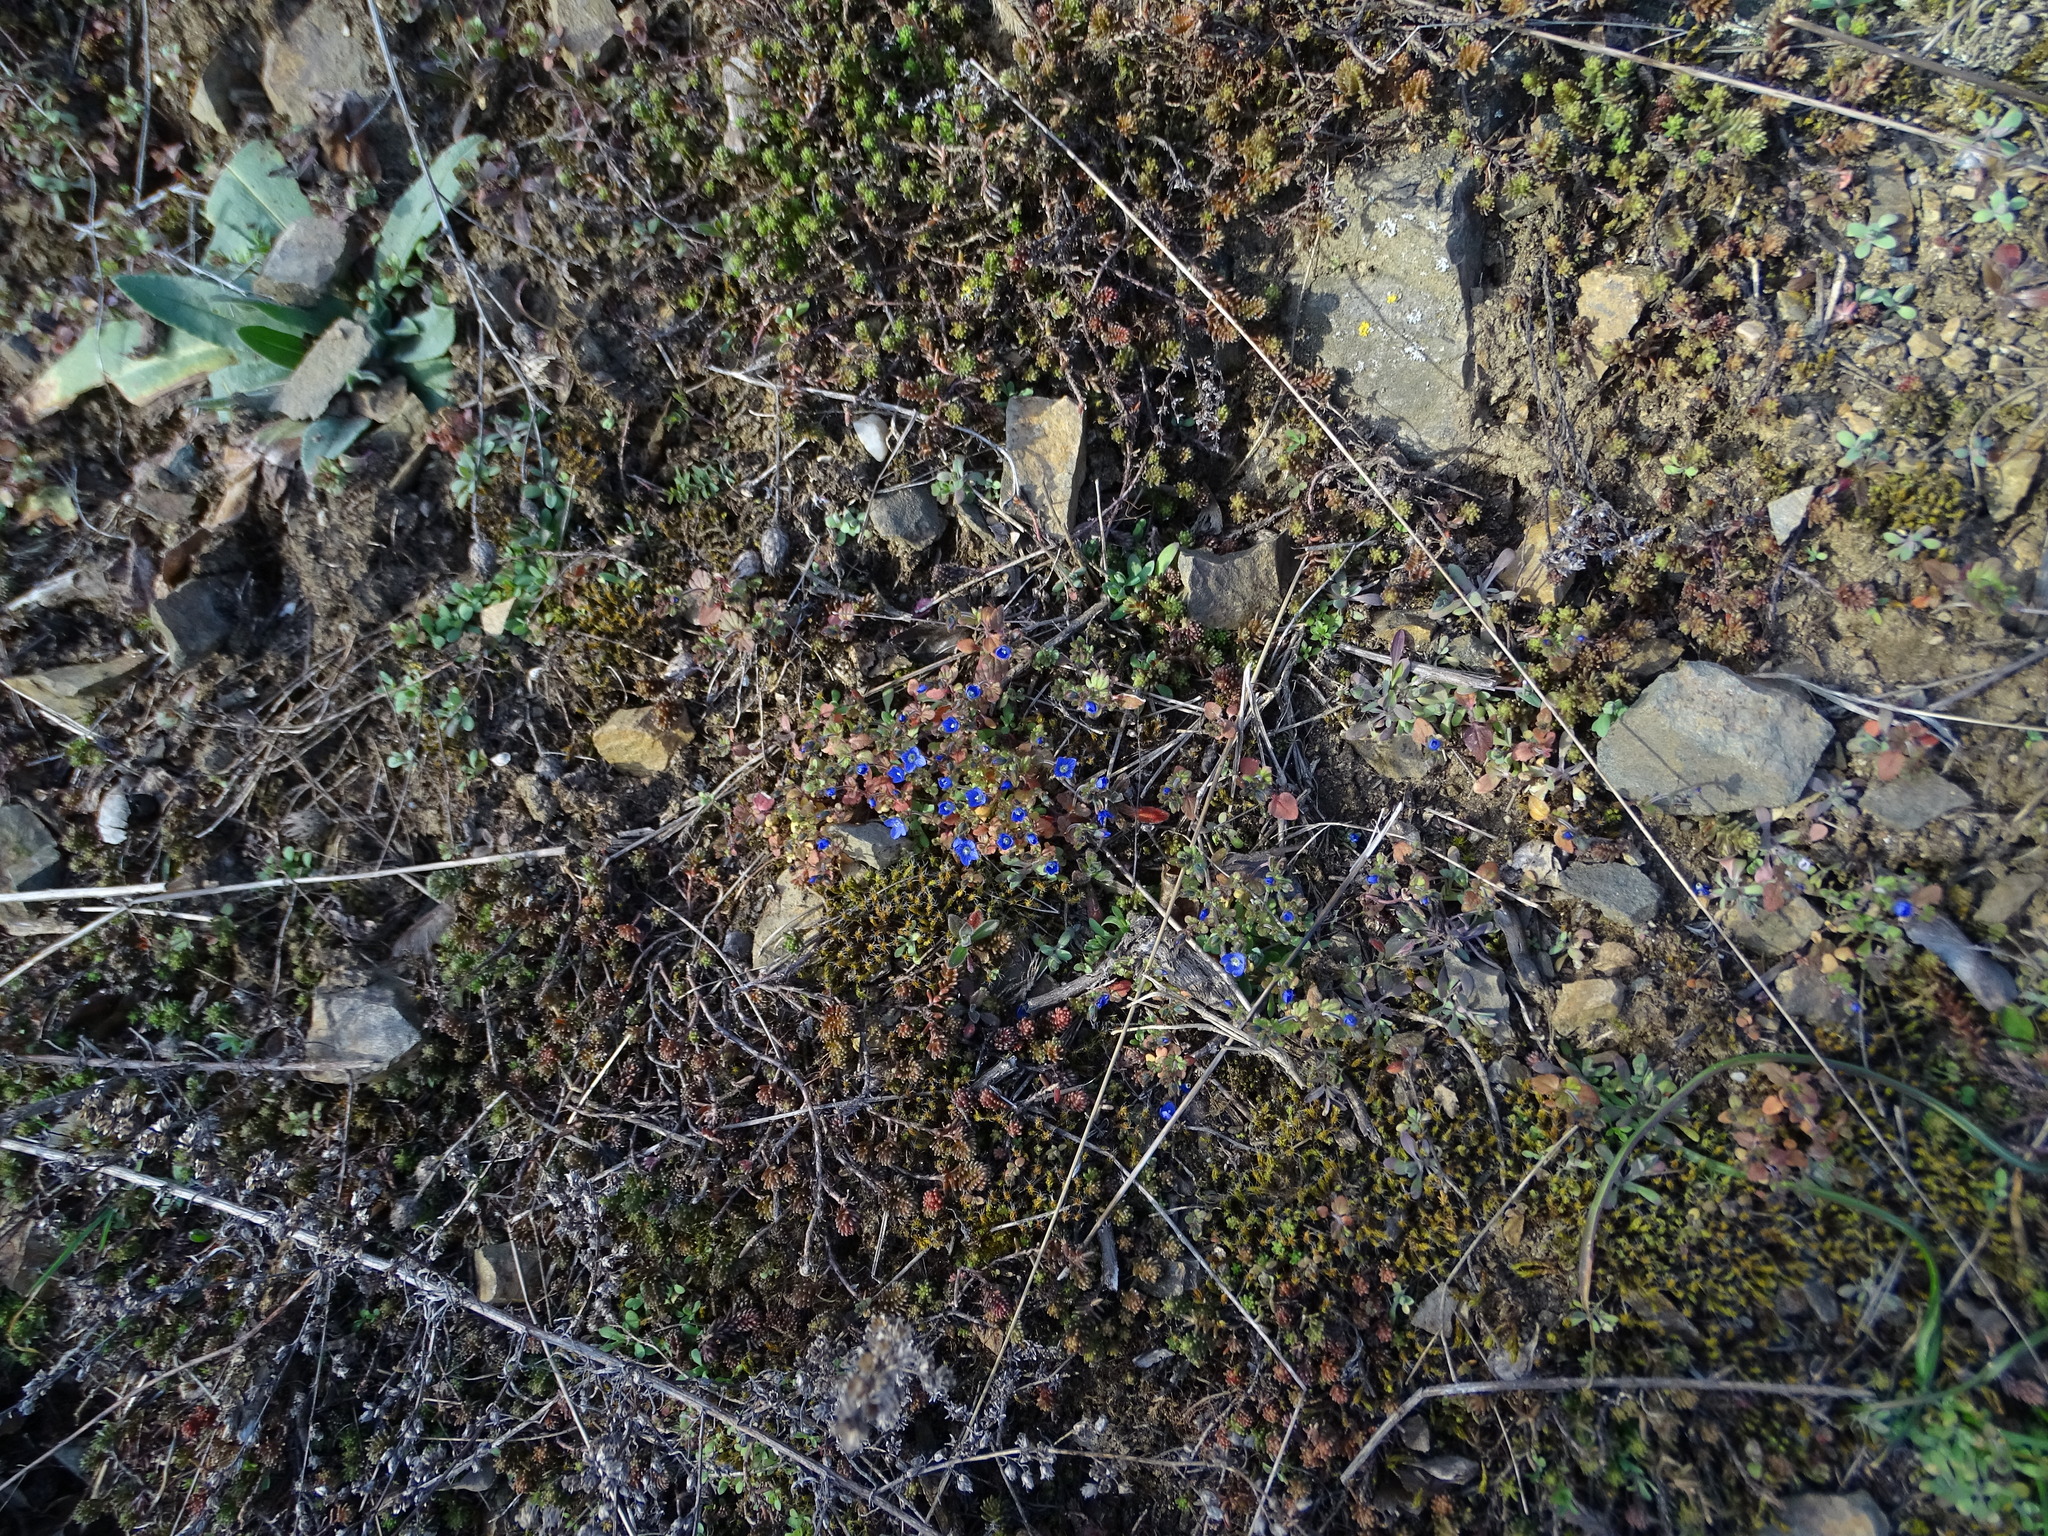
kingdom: Plantae
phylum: Tracheophyta
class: Magnoliopsida
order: Lamiales
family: Plantaginaceae
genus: Veronica
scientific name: Veronica praecox
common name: Breckland speedwell
